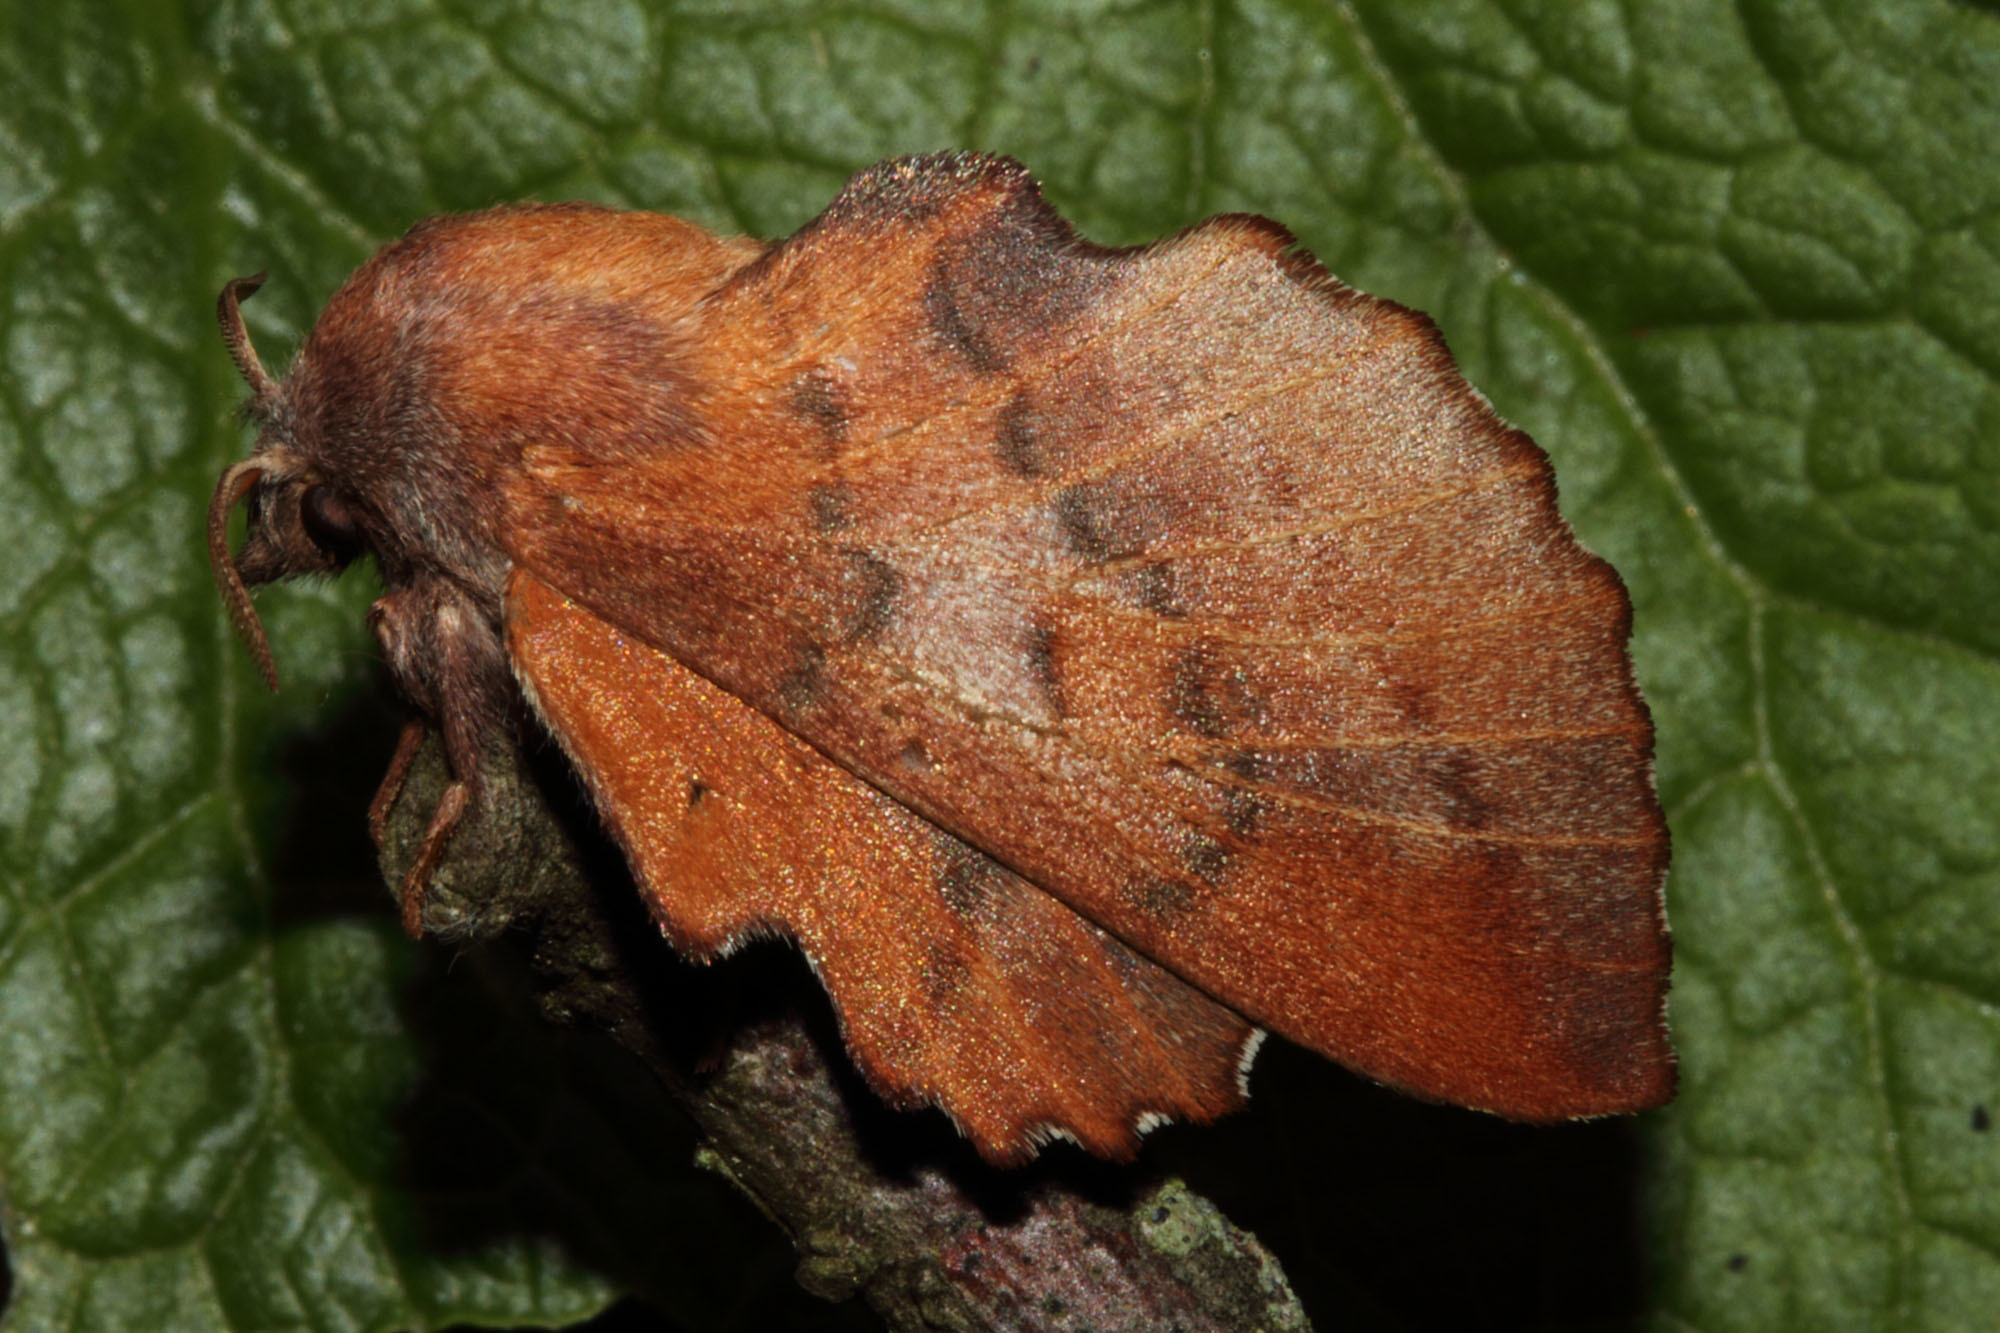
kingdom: Animalia
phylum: Arthropoda
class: Insecta
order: Lepidoptera
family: Lasiocampidae
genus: Phyllodesma
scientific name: Phyllodesma americana
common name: American lappet moth
